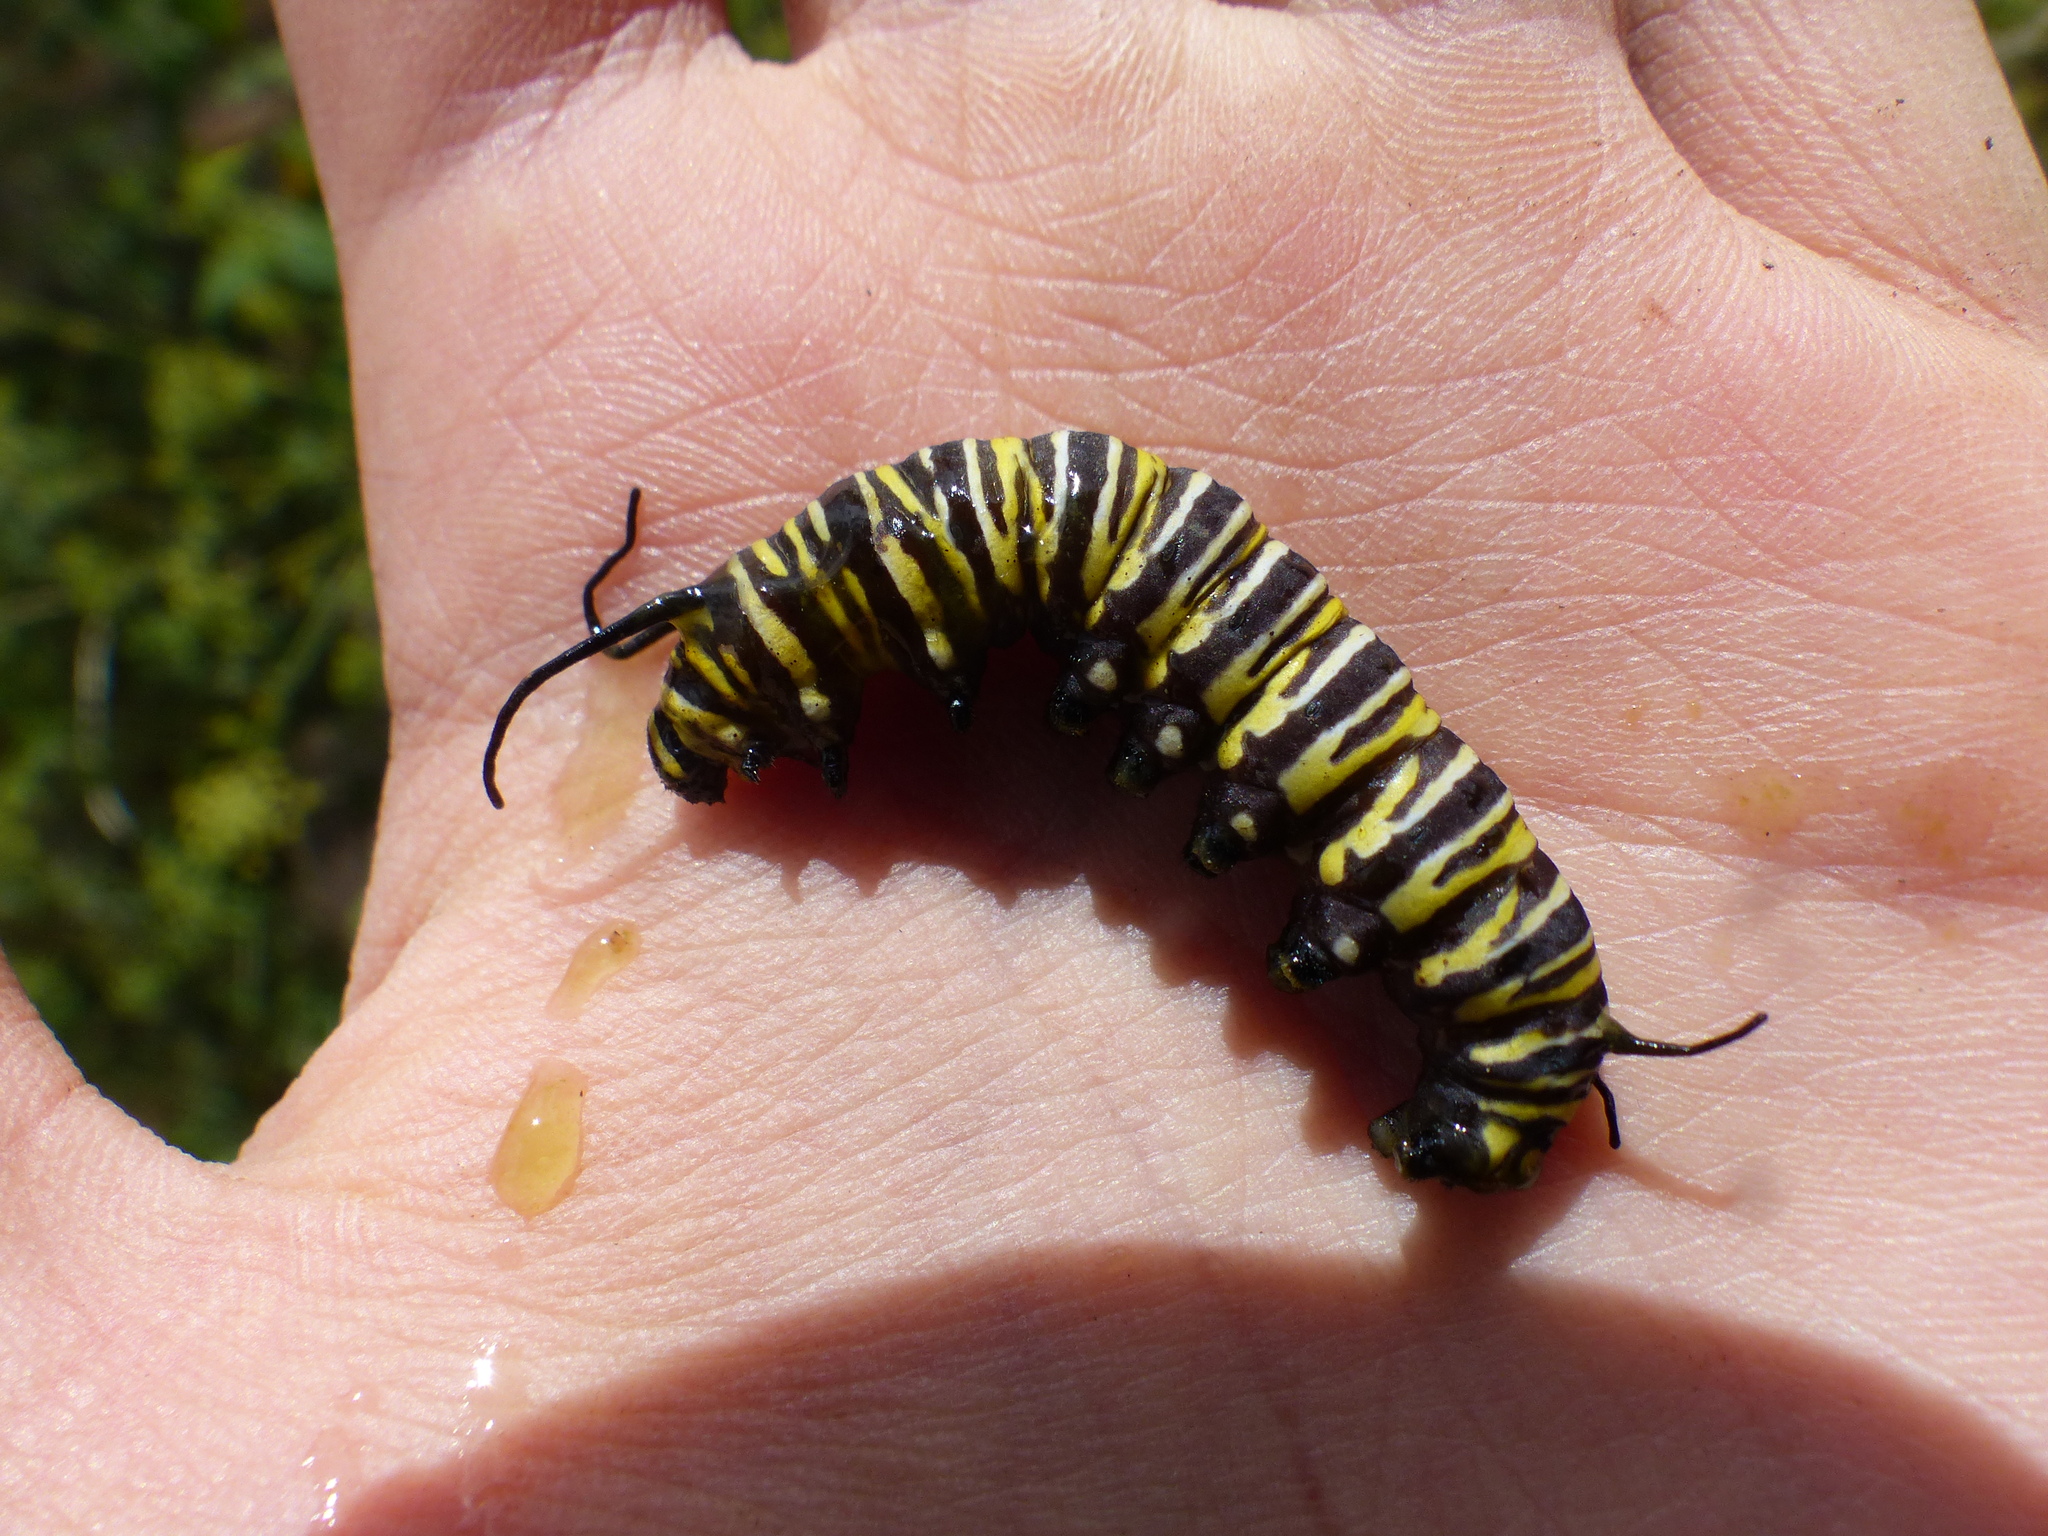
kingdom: Animalia
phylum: Arthropoda
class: Insecta
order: Lepidoptera
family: Nymphalidae
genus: Danaus
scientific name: Danaus plexippus
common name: Monarch
